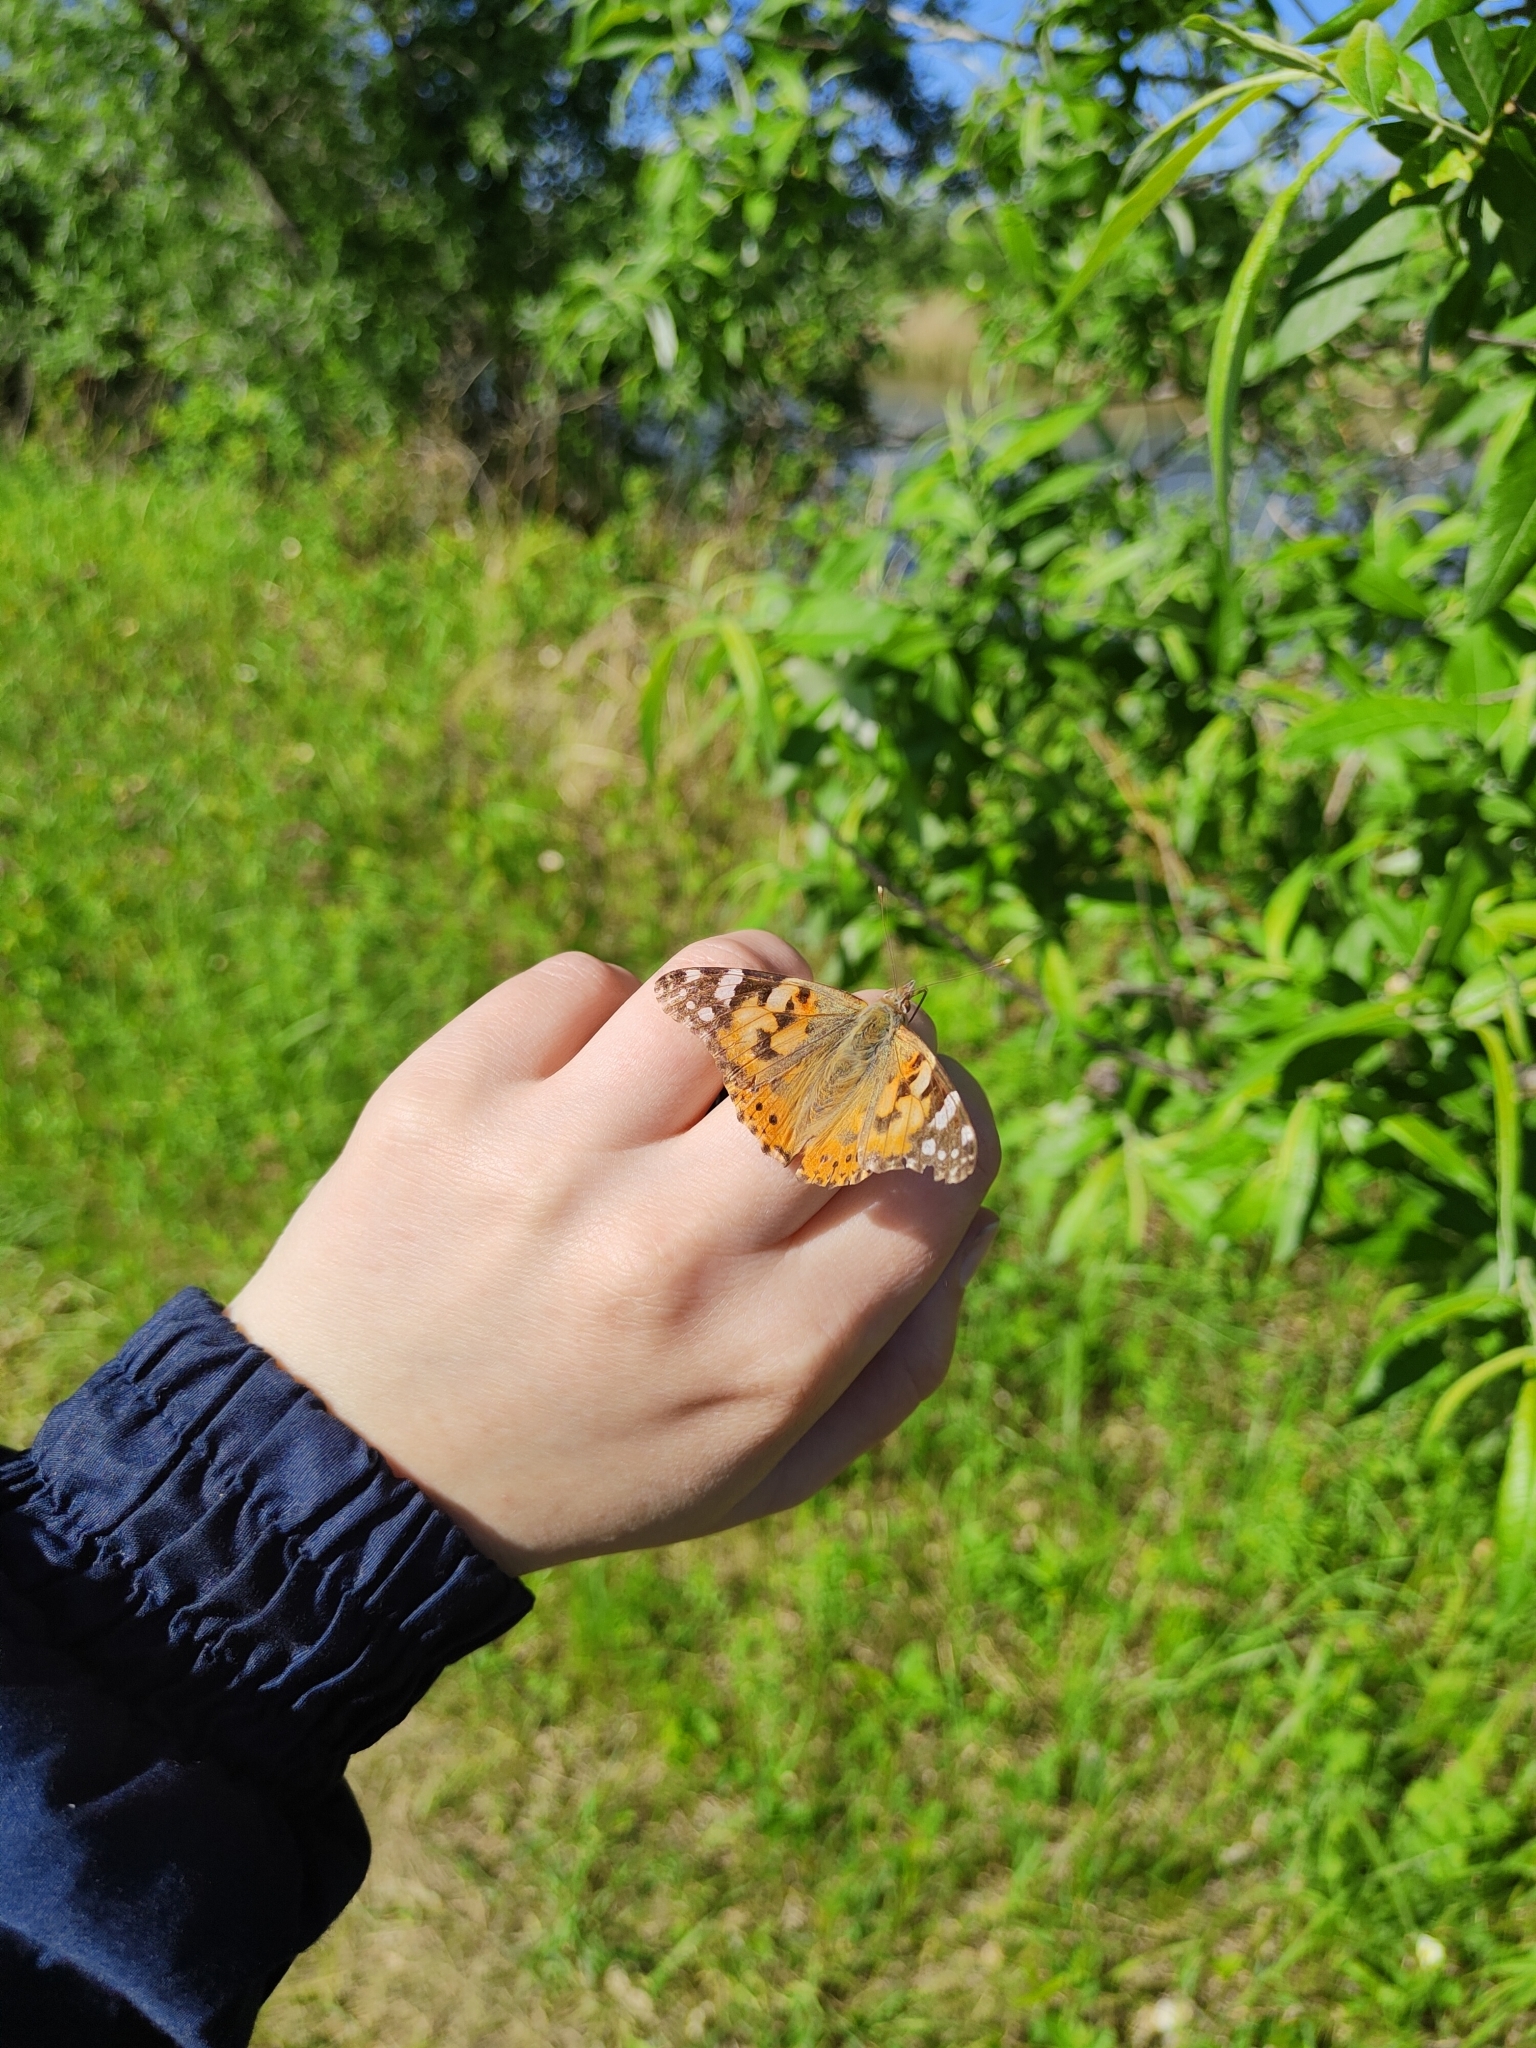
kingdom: Animalia
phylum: Arthropoda
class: Insecta
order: Lepidoptera
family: Nymphalidae
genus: Vanessa
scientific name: Vanessa cardui
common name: Painted lady
